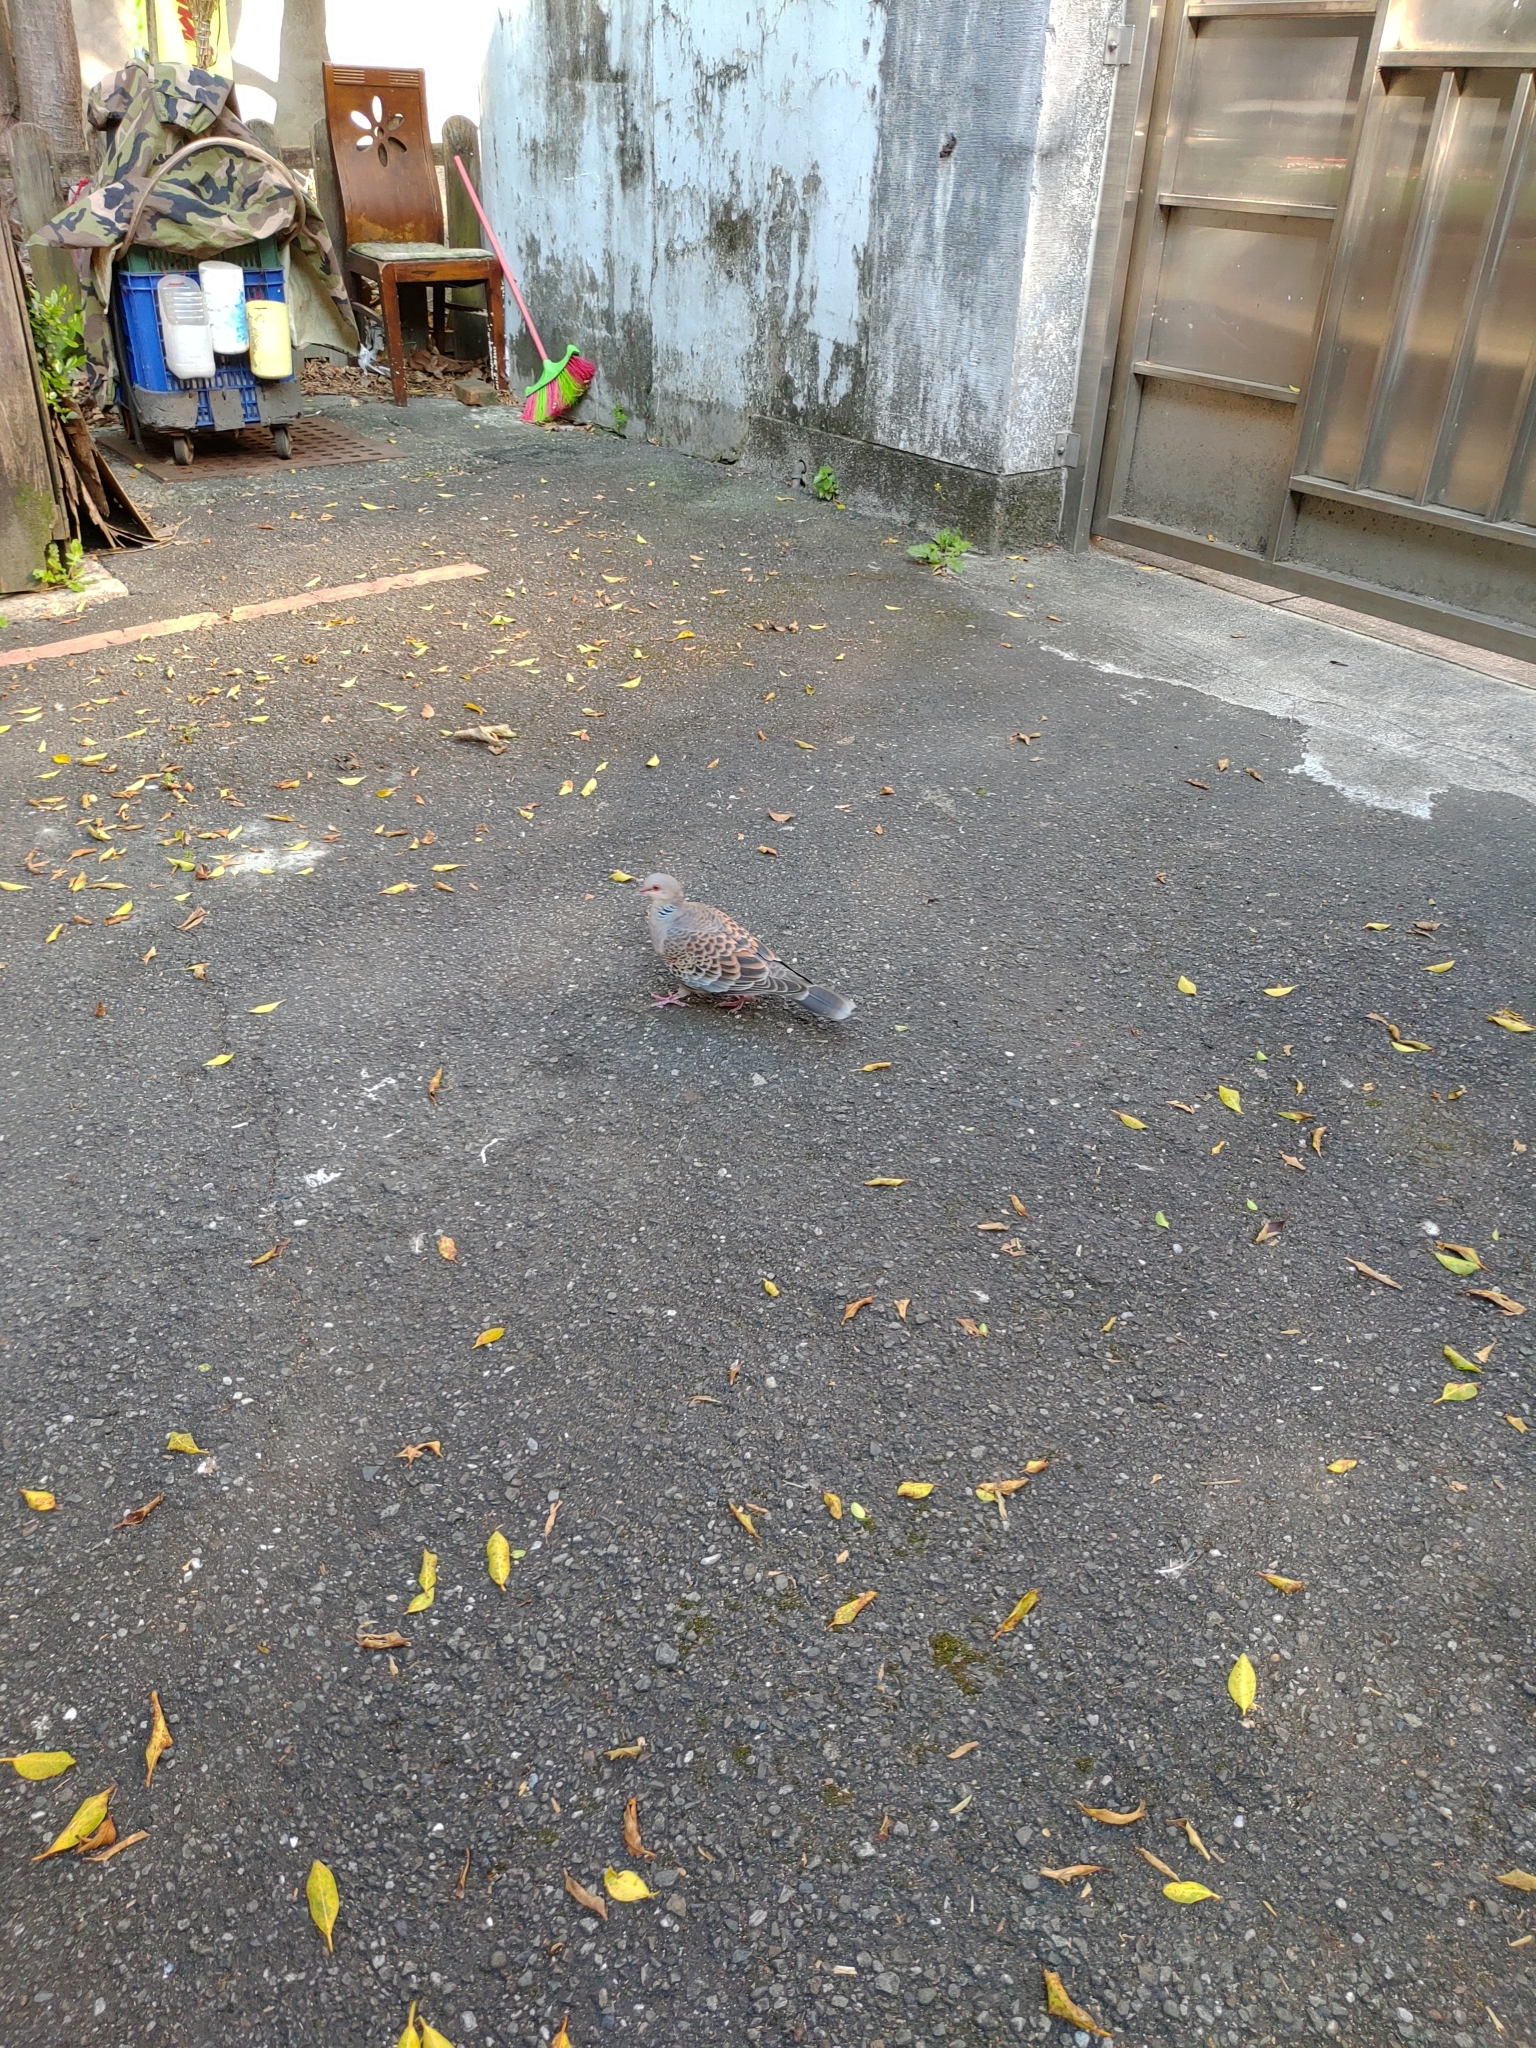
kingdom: Animalia
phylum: Chordata
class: Aves
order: Columbiformes
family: Columbidae
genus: Streptopelia
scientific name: Streptopelia orientalis
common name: Oriental turtle dove
